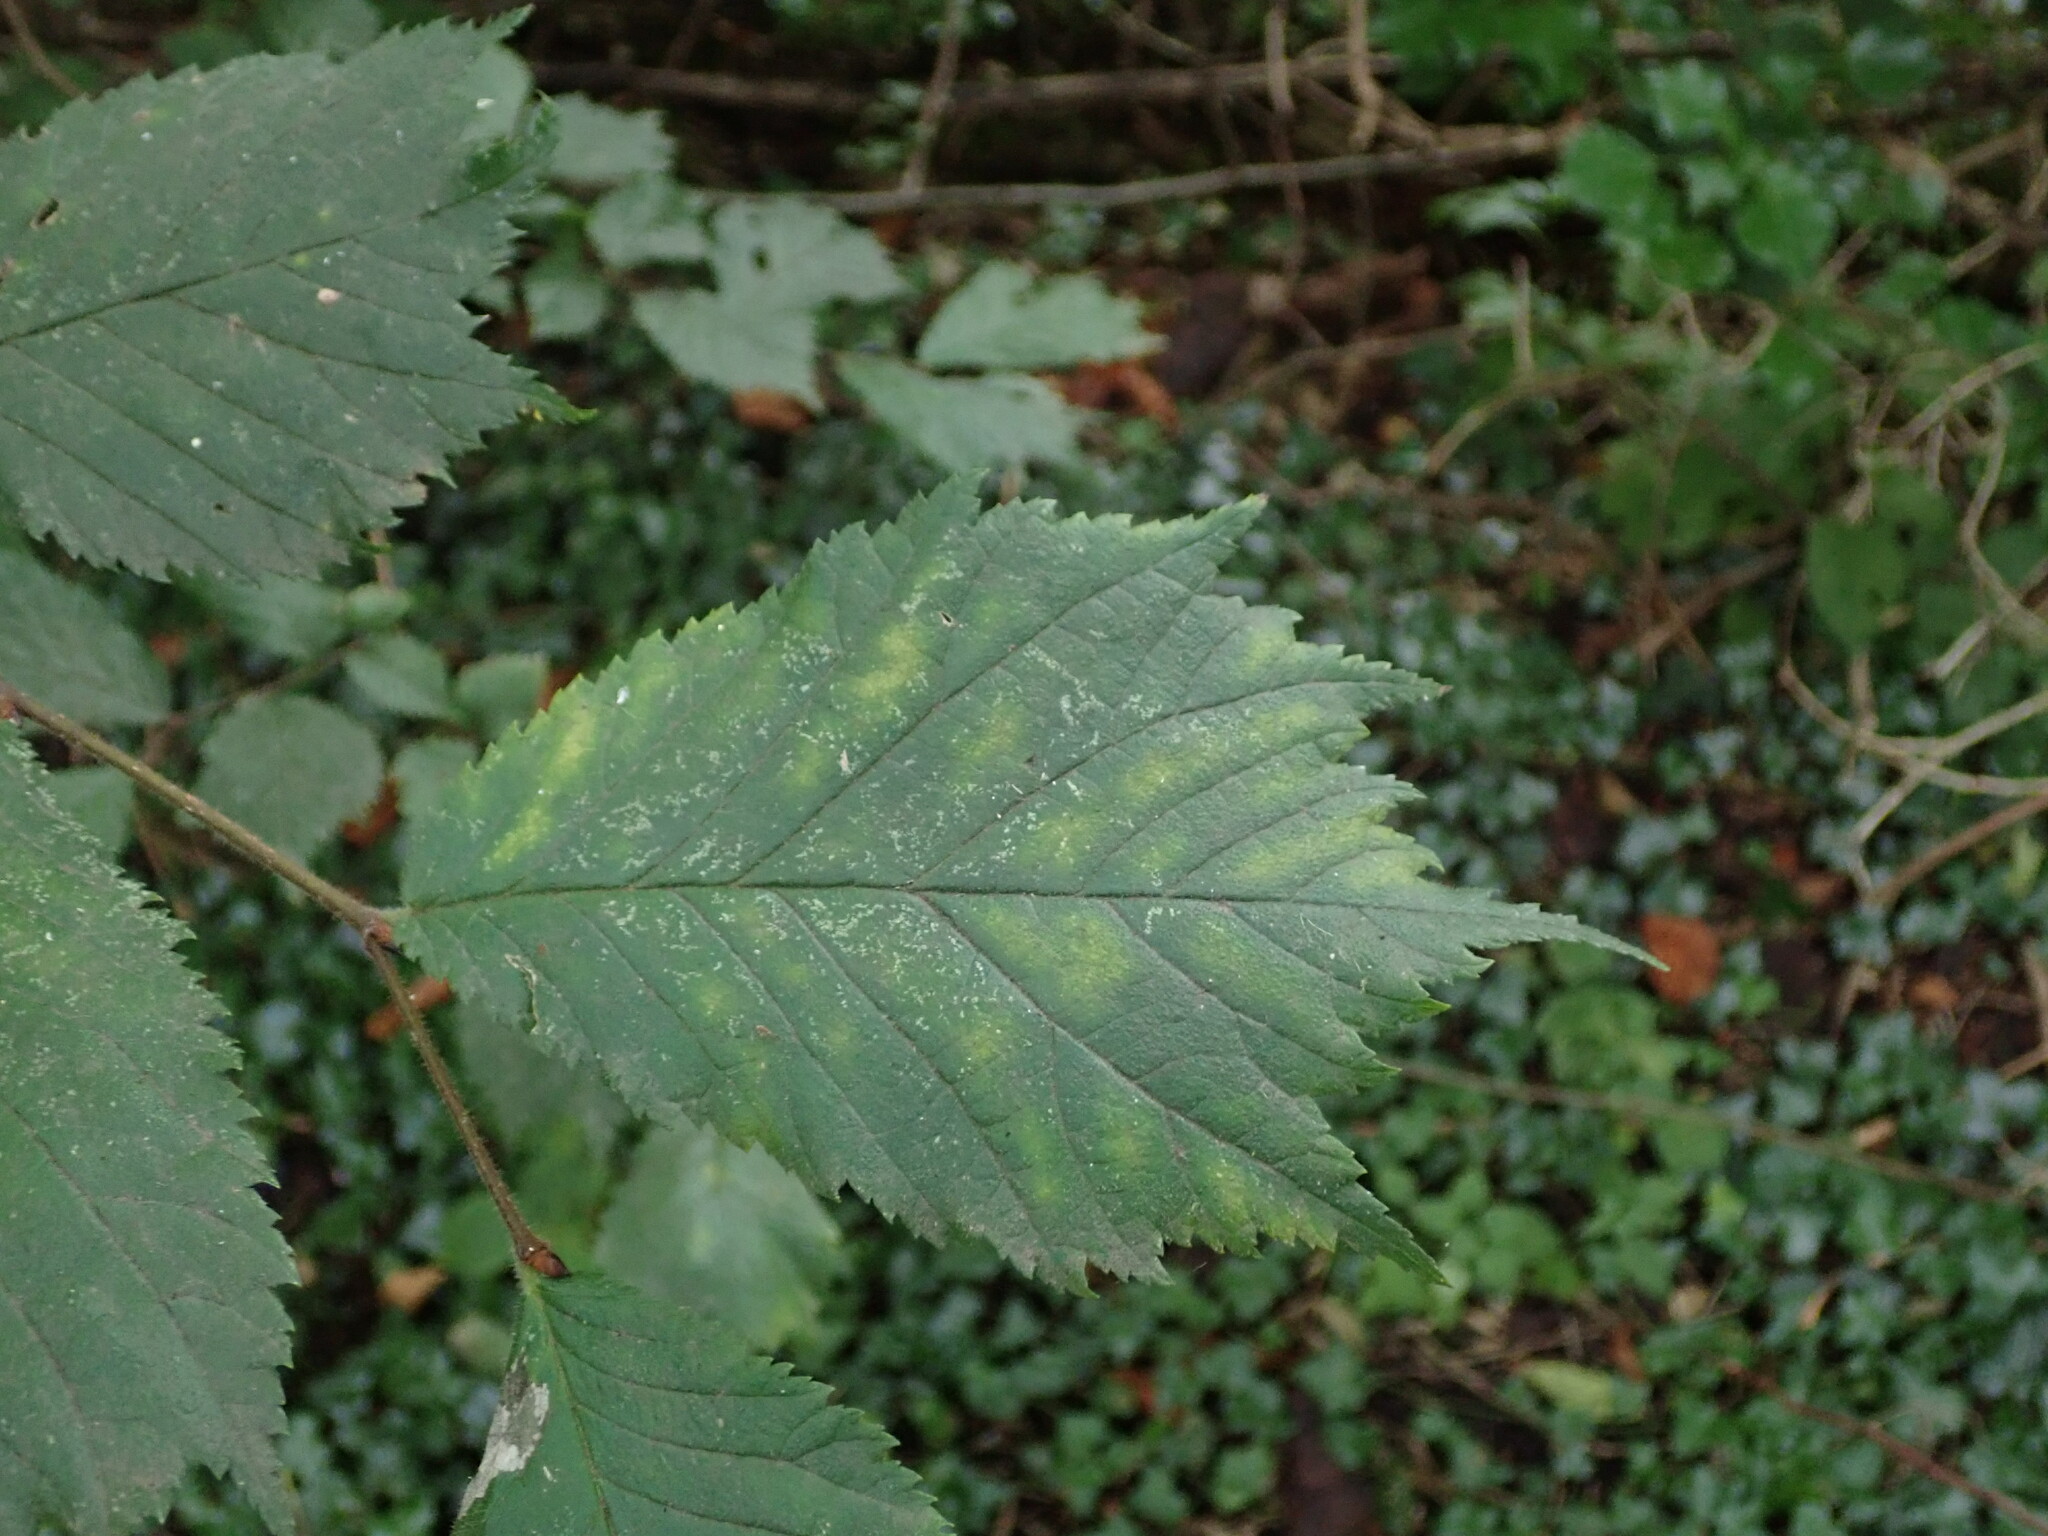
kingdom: Plantae
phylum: Tracheophyta
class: Magnoliopsida
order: Rosales
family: Ulmaceae
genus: Ulmus
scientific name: Ulmus glabra
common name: Wych elm
